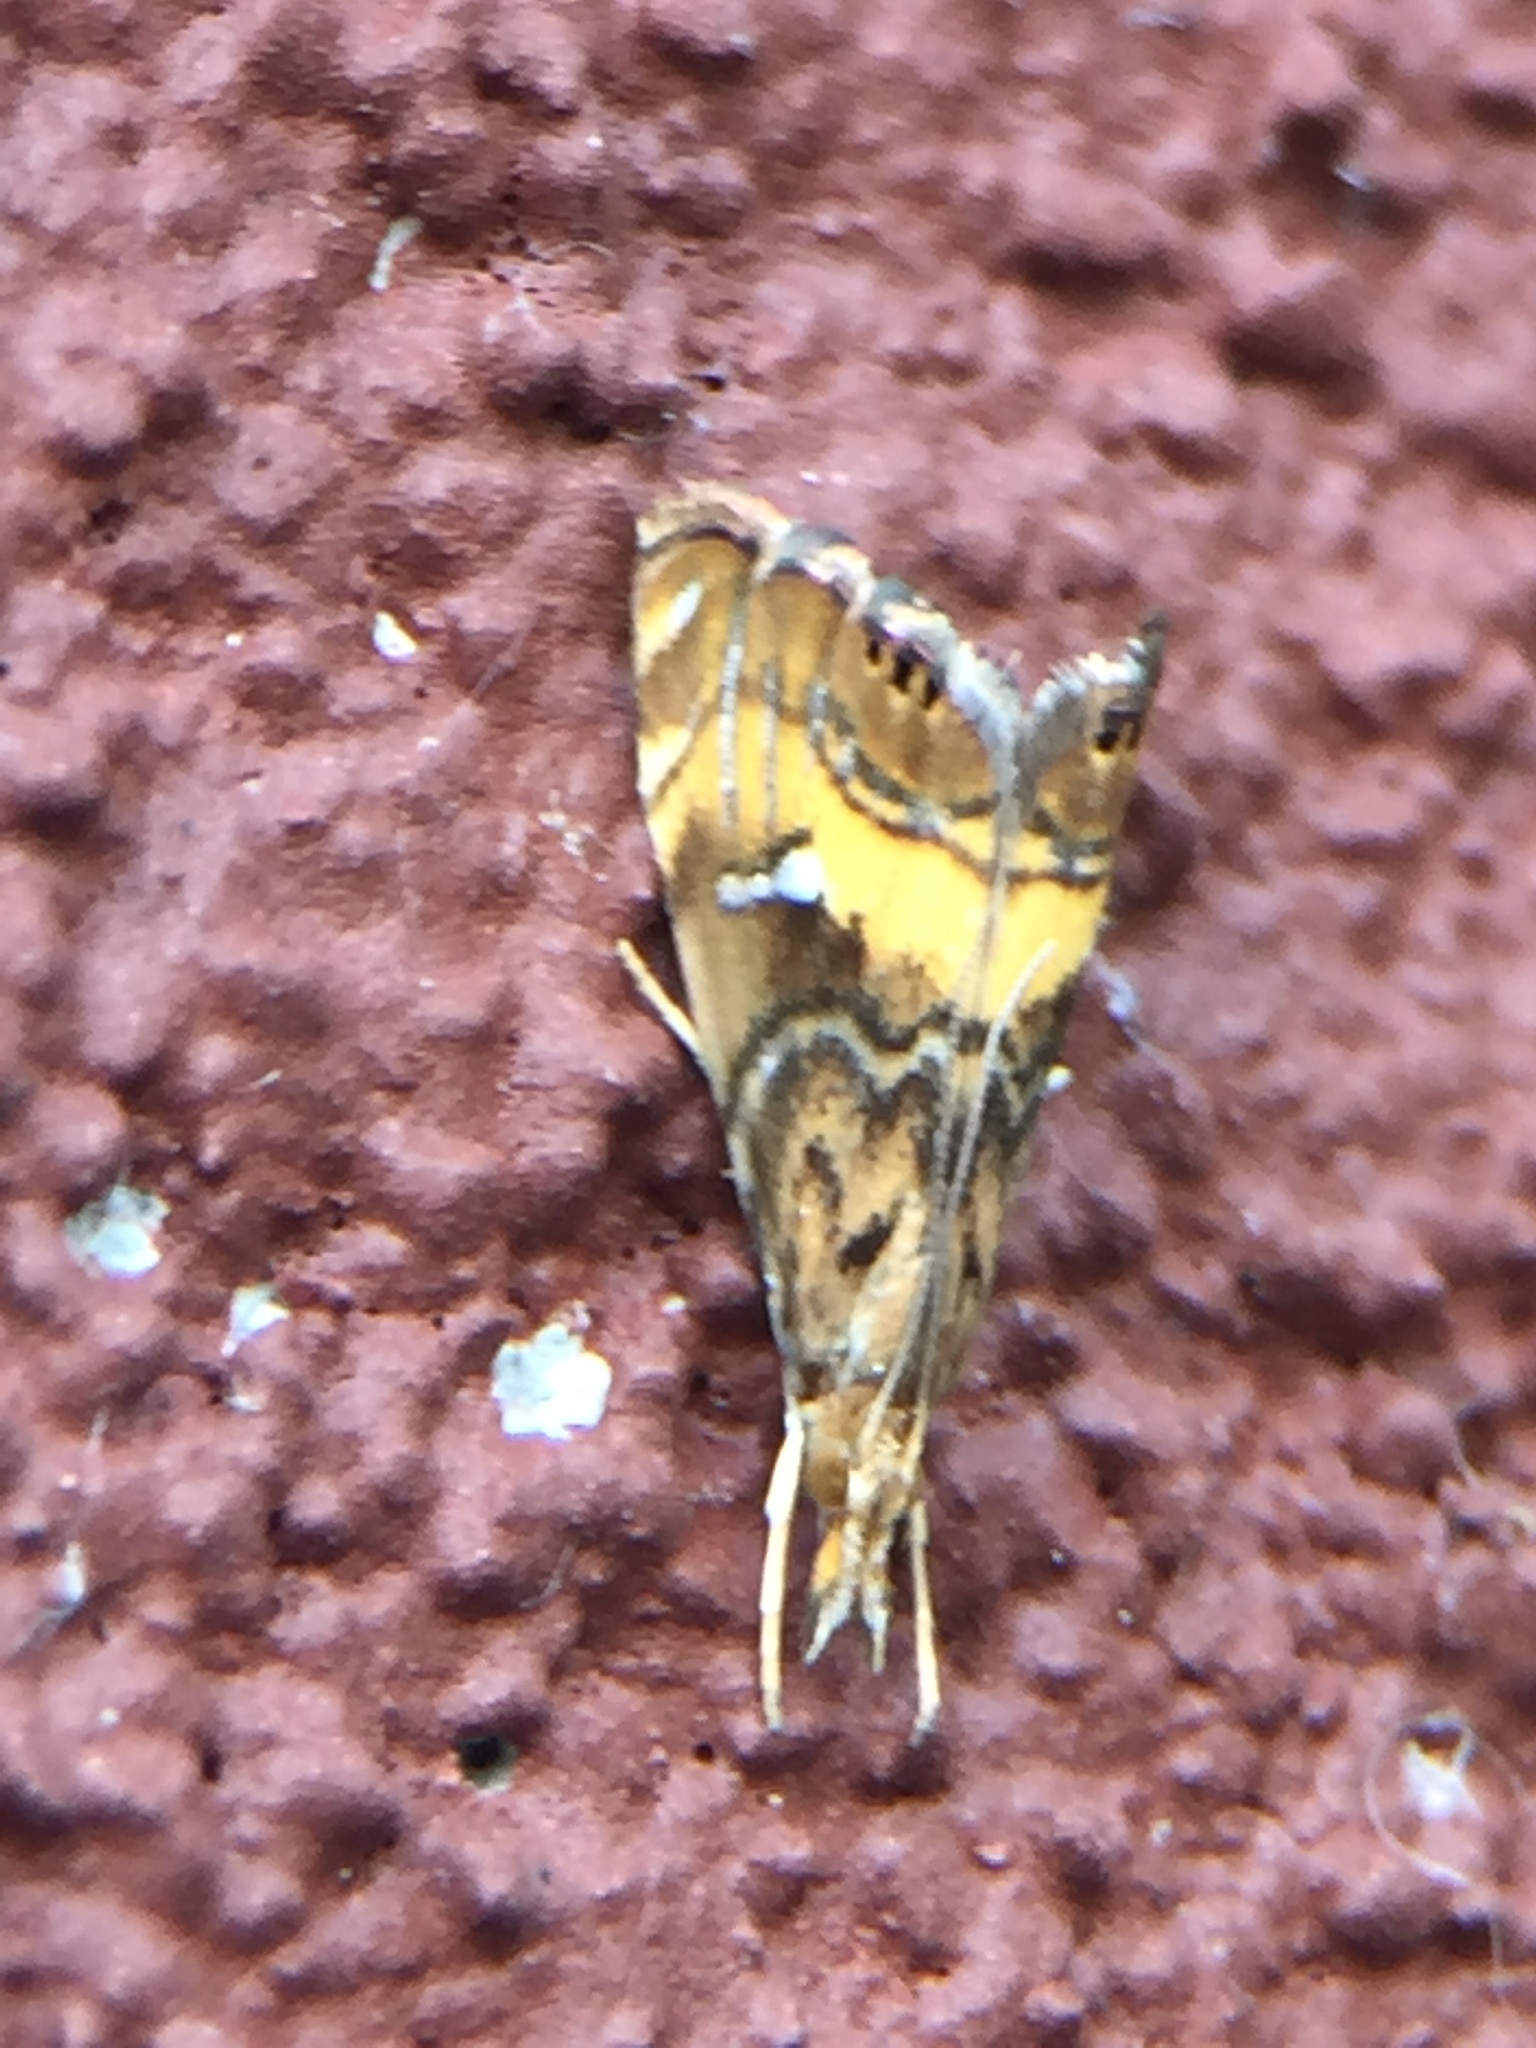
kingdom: Animalia
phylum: Arthropoda
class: Insecta
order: Lepidoptera
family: Crambidae
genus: Glaucocharis
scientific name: Glaucocharis chrysochyta
